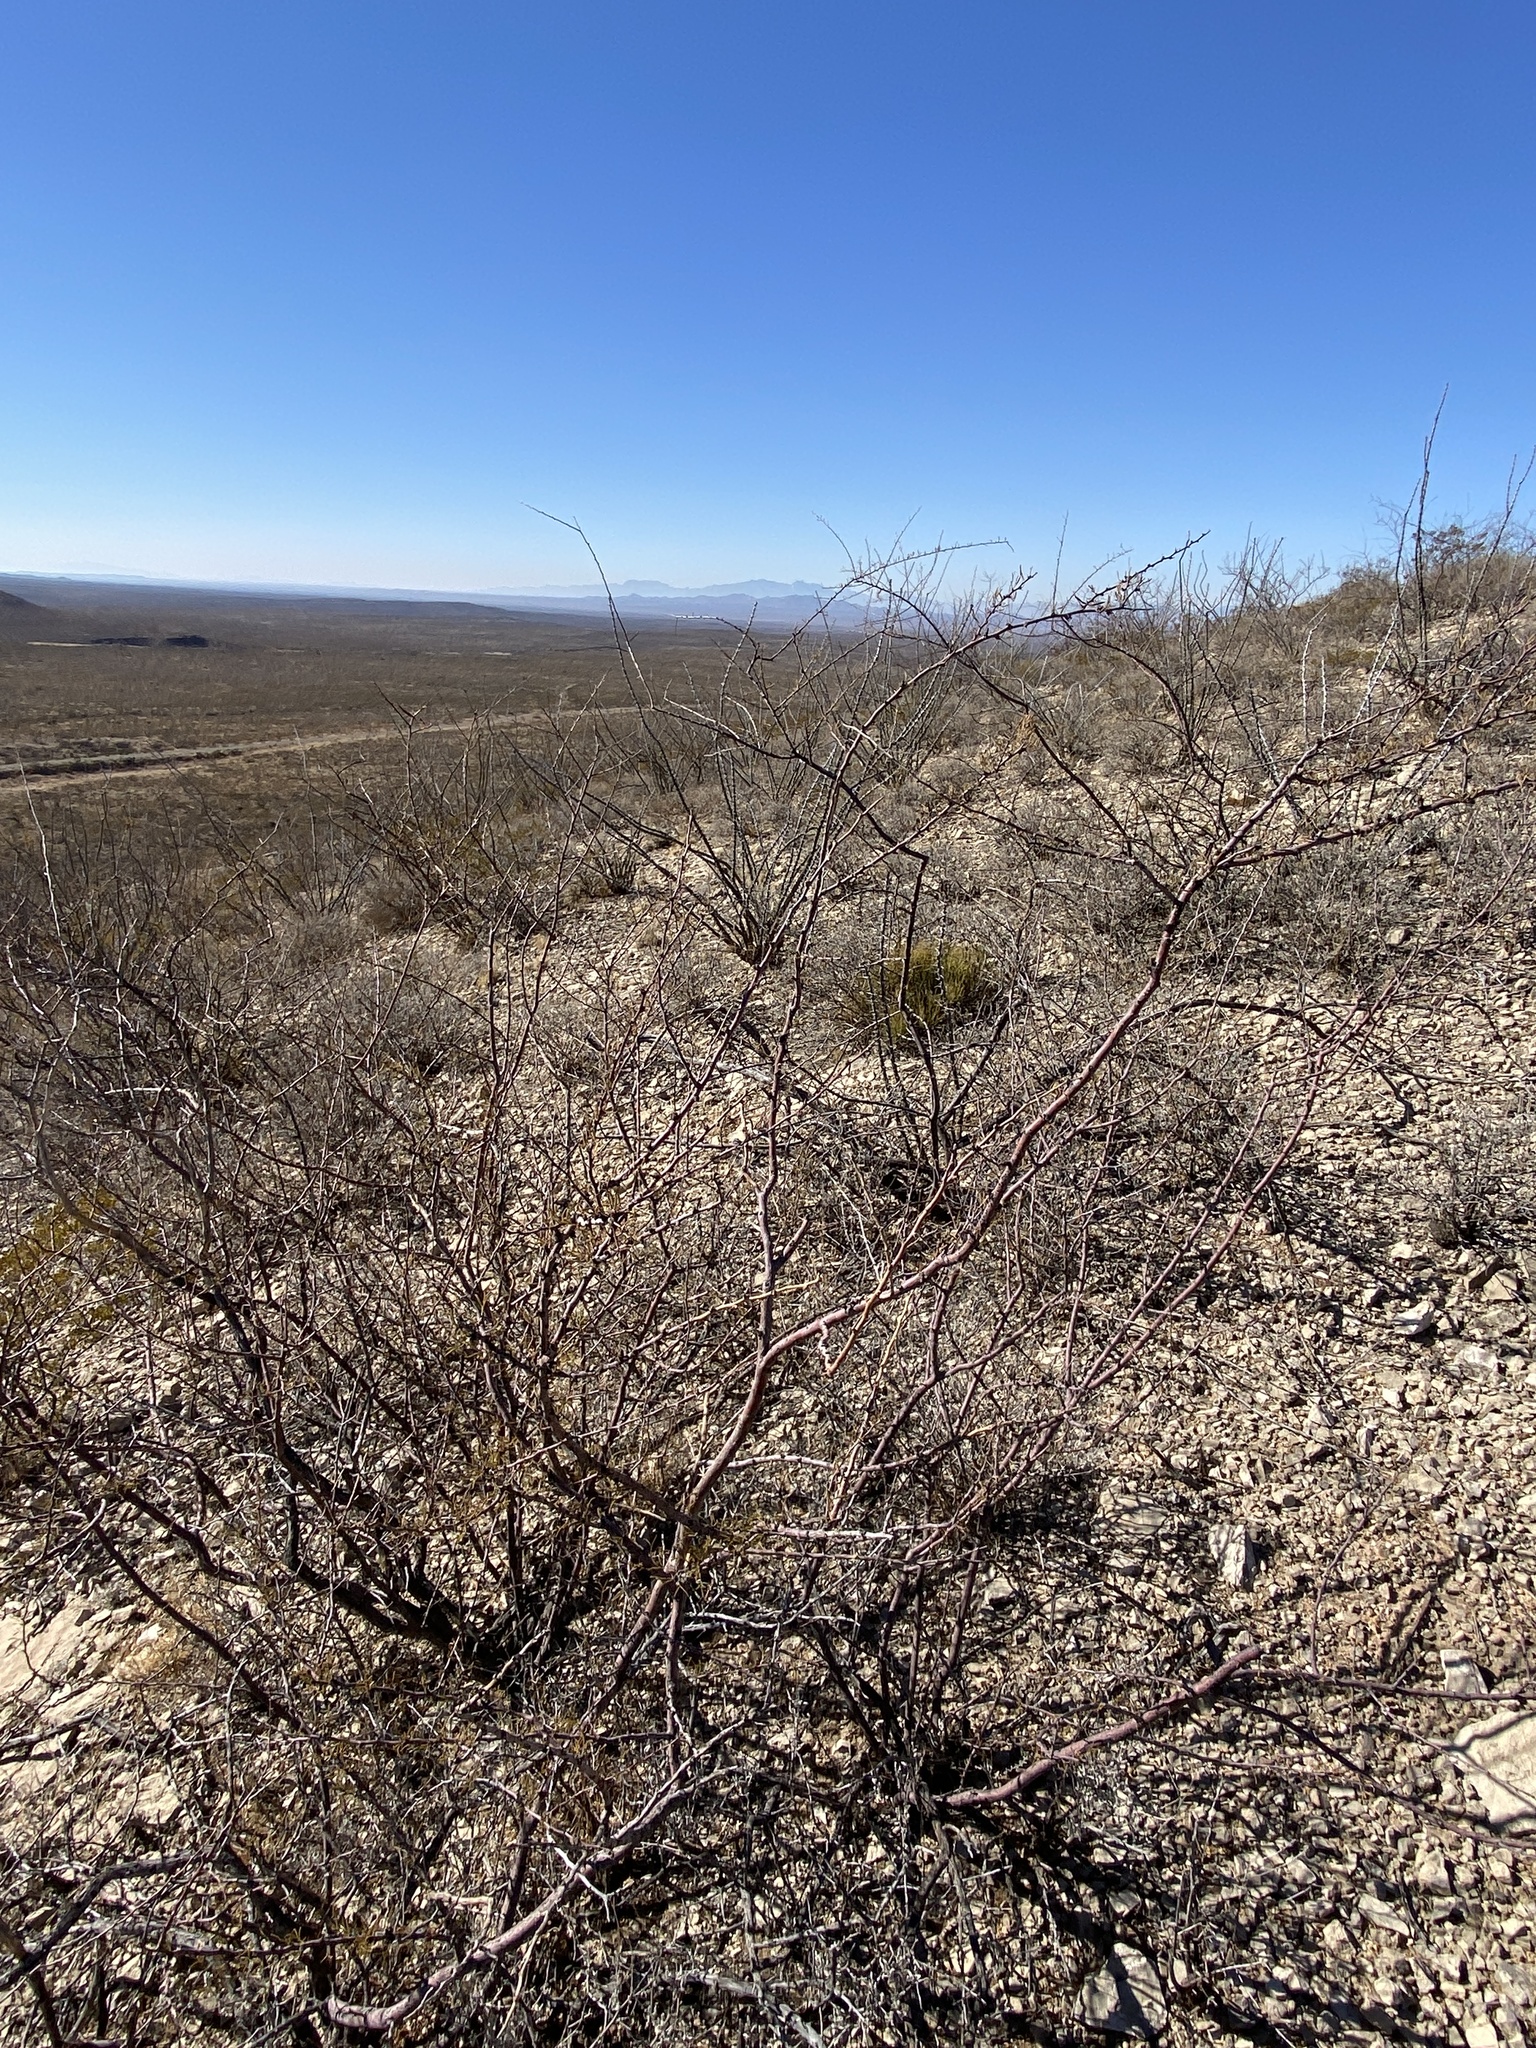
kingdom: Plantae
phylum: Tracheophyta
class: Magnoliopsida
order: Fabales
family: Fabaceae
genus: Vachellia
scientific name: Vachellia constricta
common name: Mescat acacia
